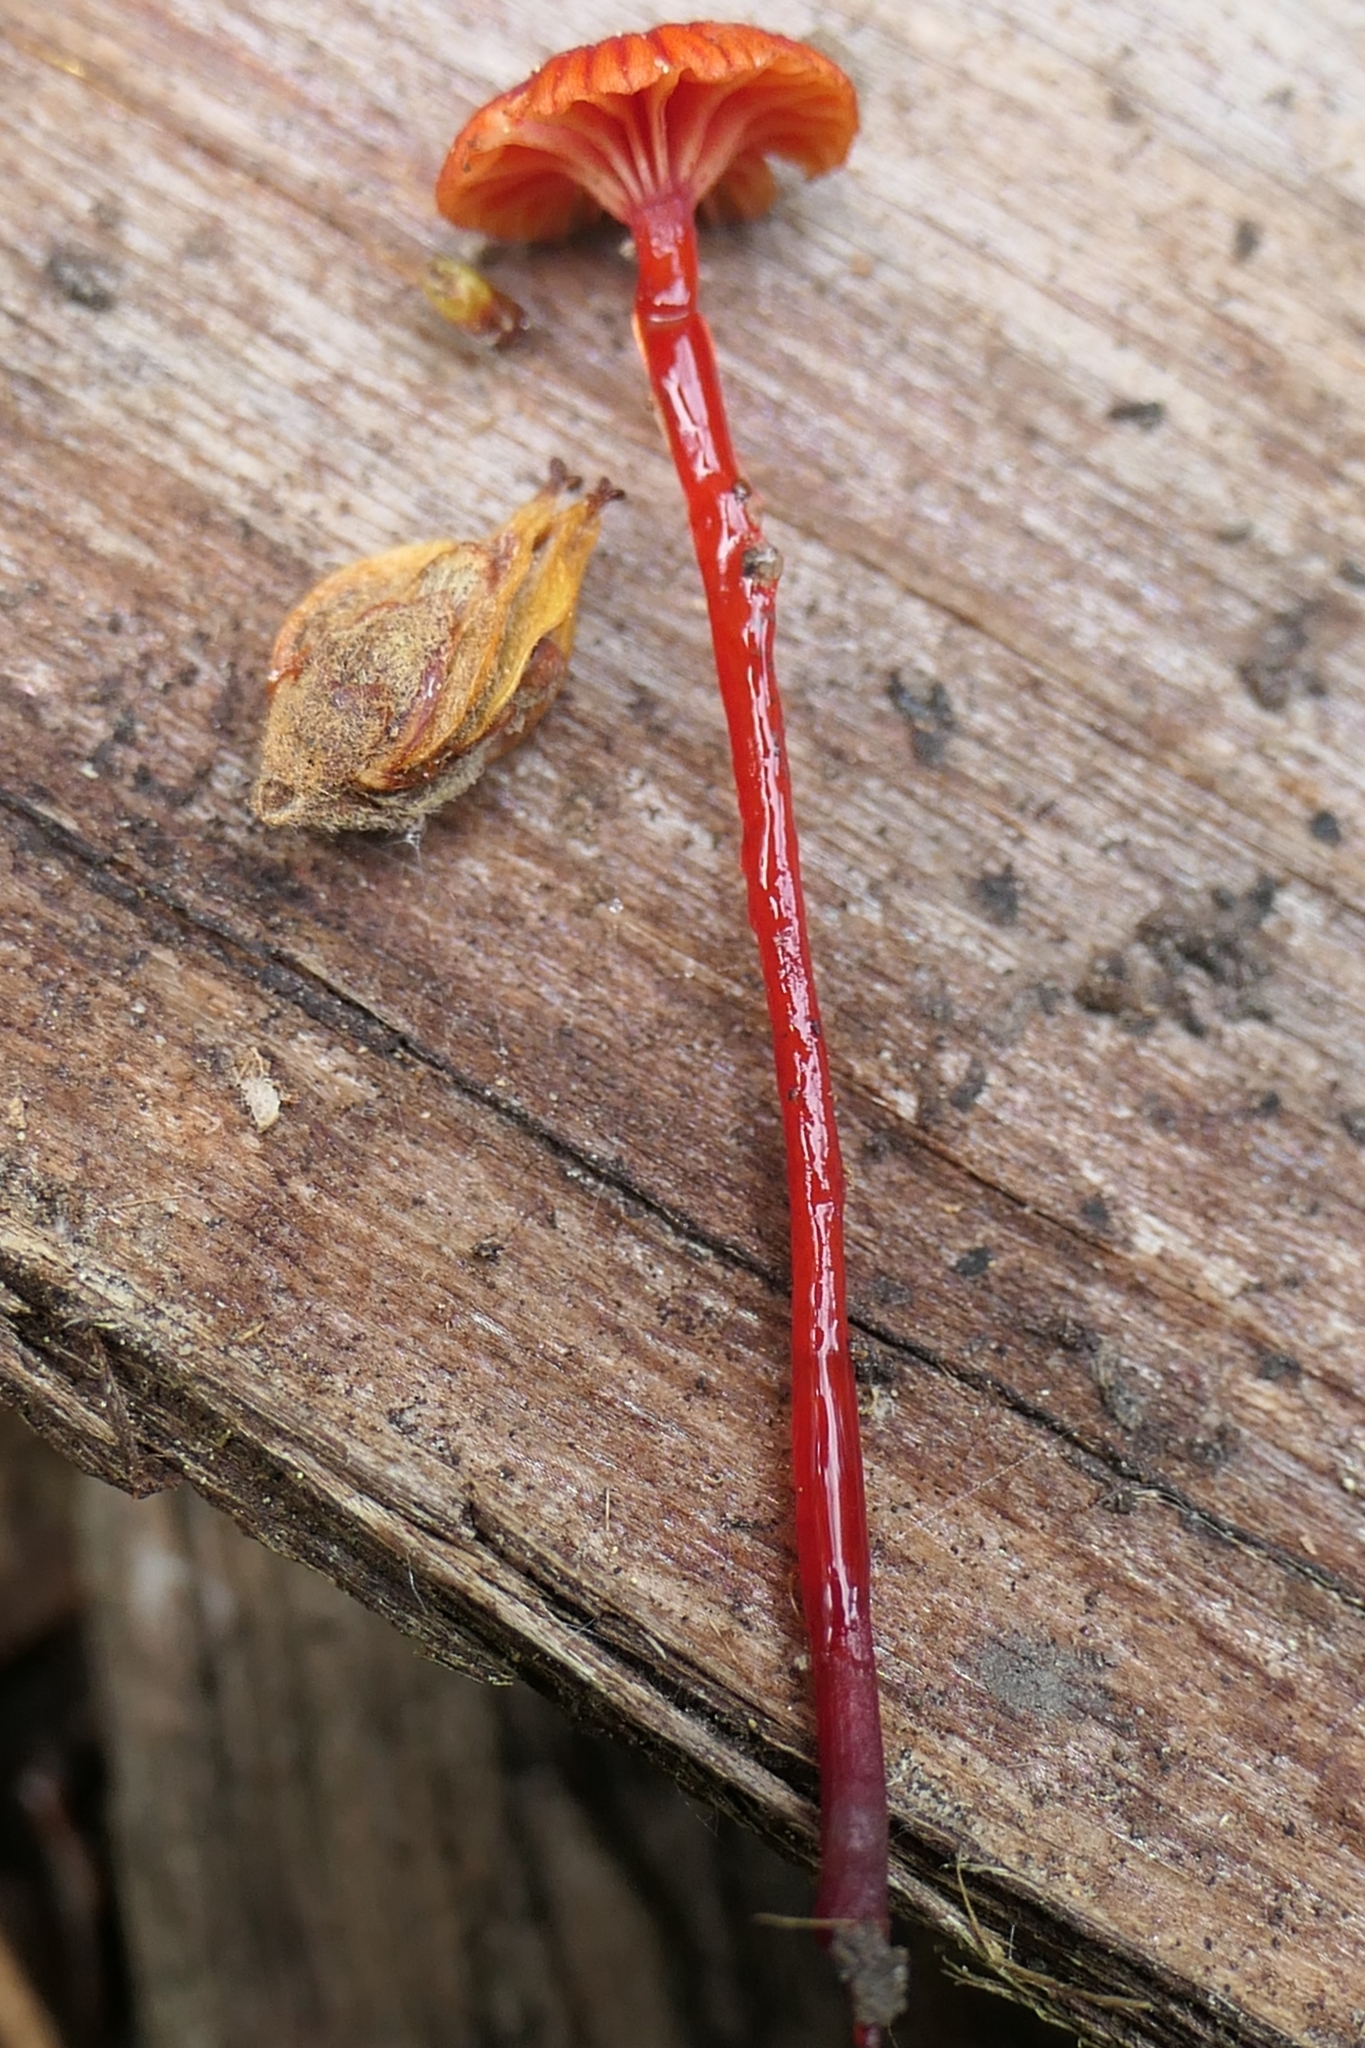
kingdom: Fungi
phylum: Basidiomycota
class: Agaricomycetes
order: Agaricales
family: Mycenaceae
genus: Cruentomycena
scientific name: Cruentomycena viscidocruenta
